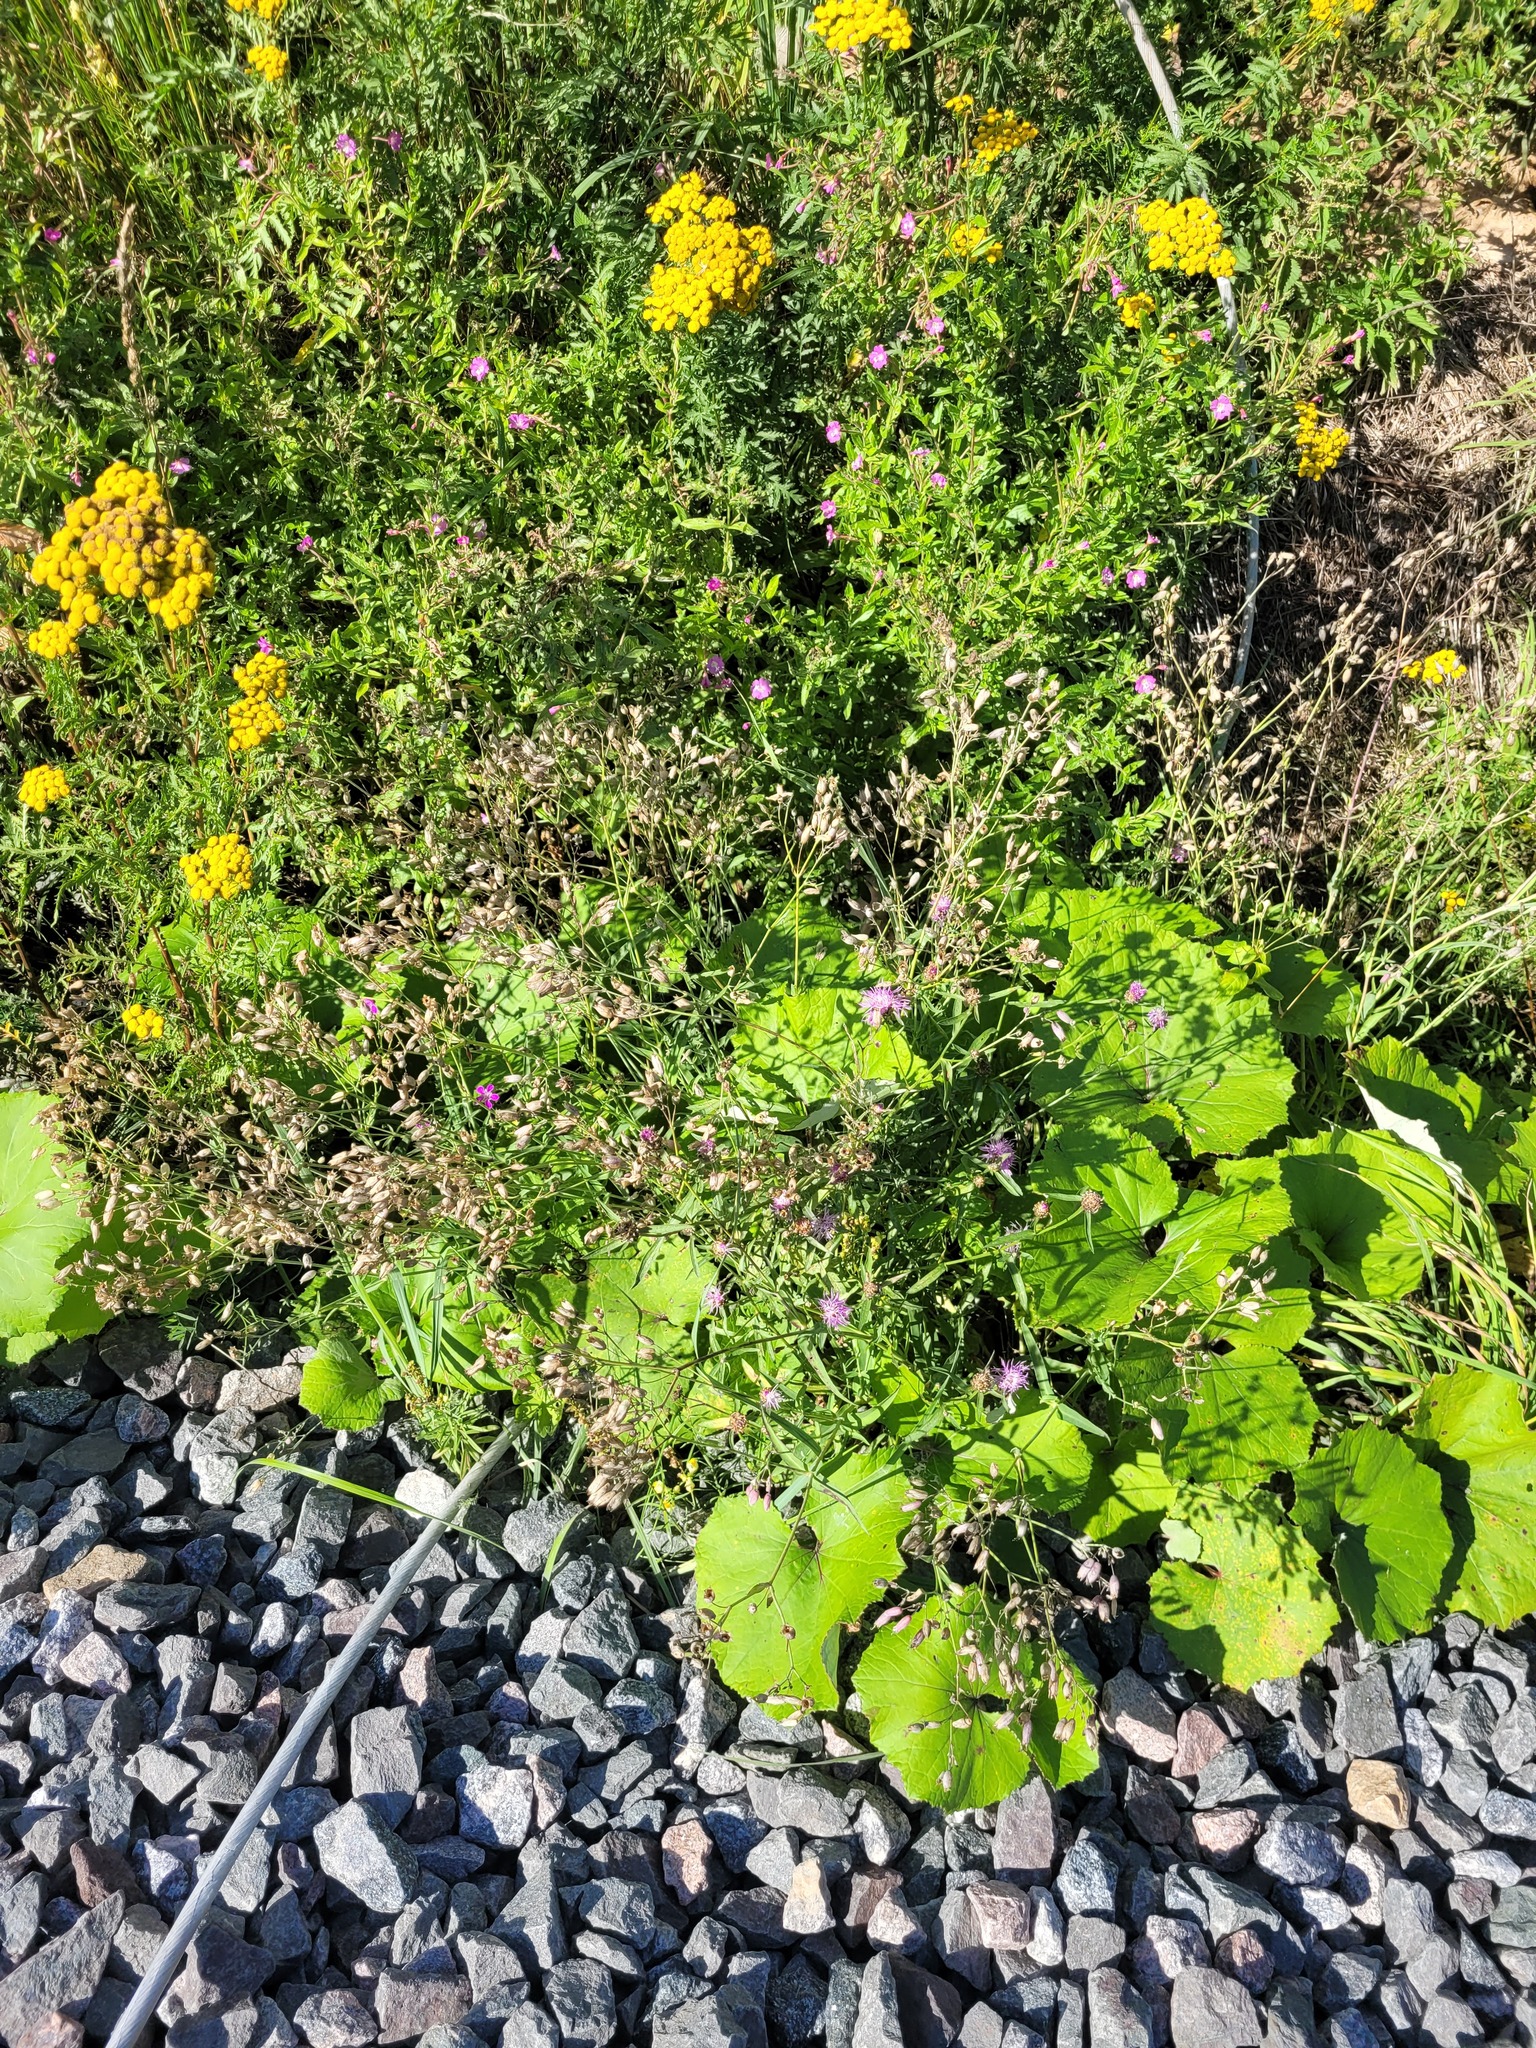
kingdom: Plantae
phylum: Tracheophyta
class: Magnoliopsida
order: Caryophyllales
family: Caryophyllaceae
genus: Silene
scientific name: Silene vulgaris
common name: Bladder campion
